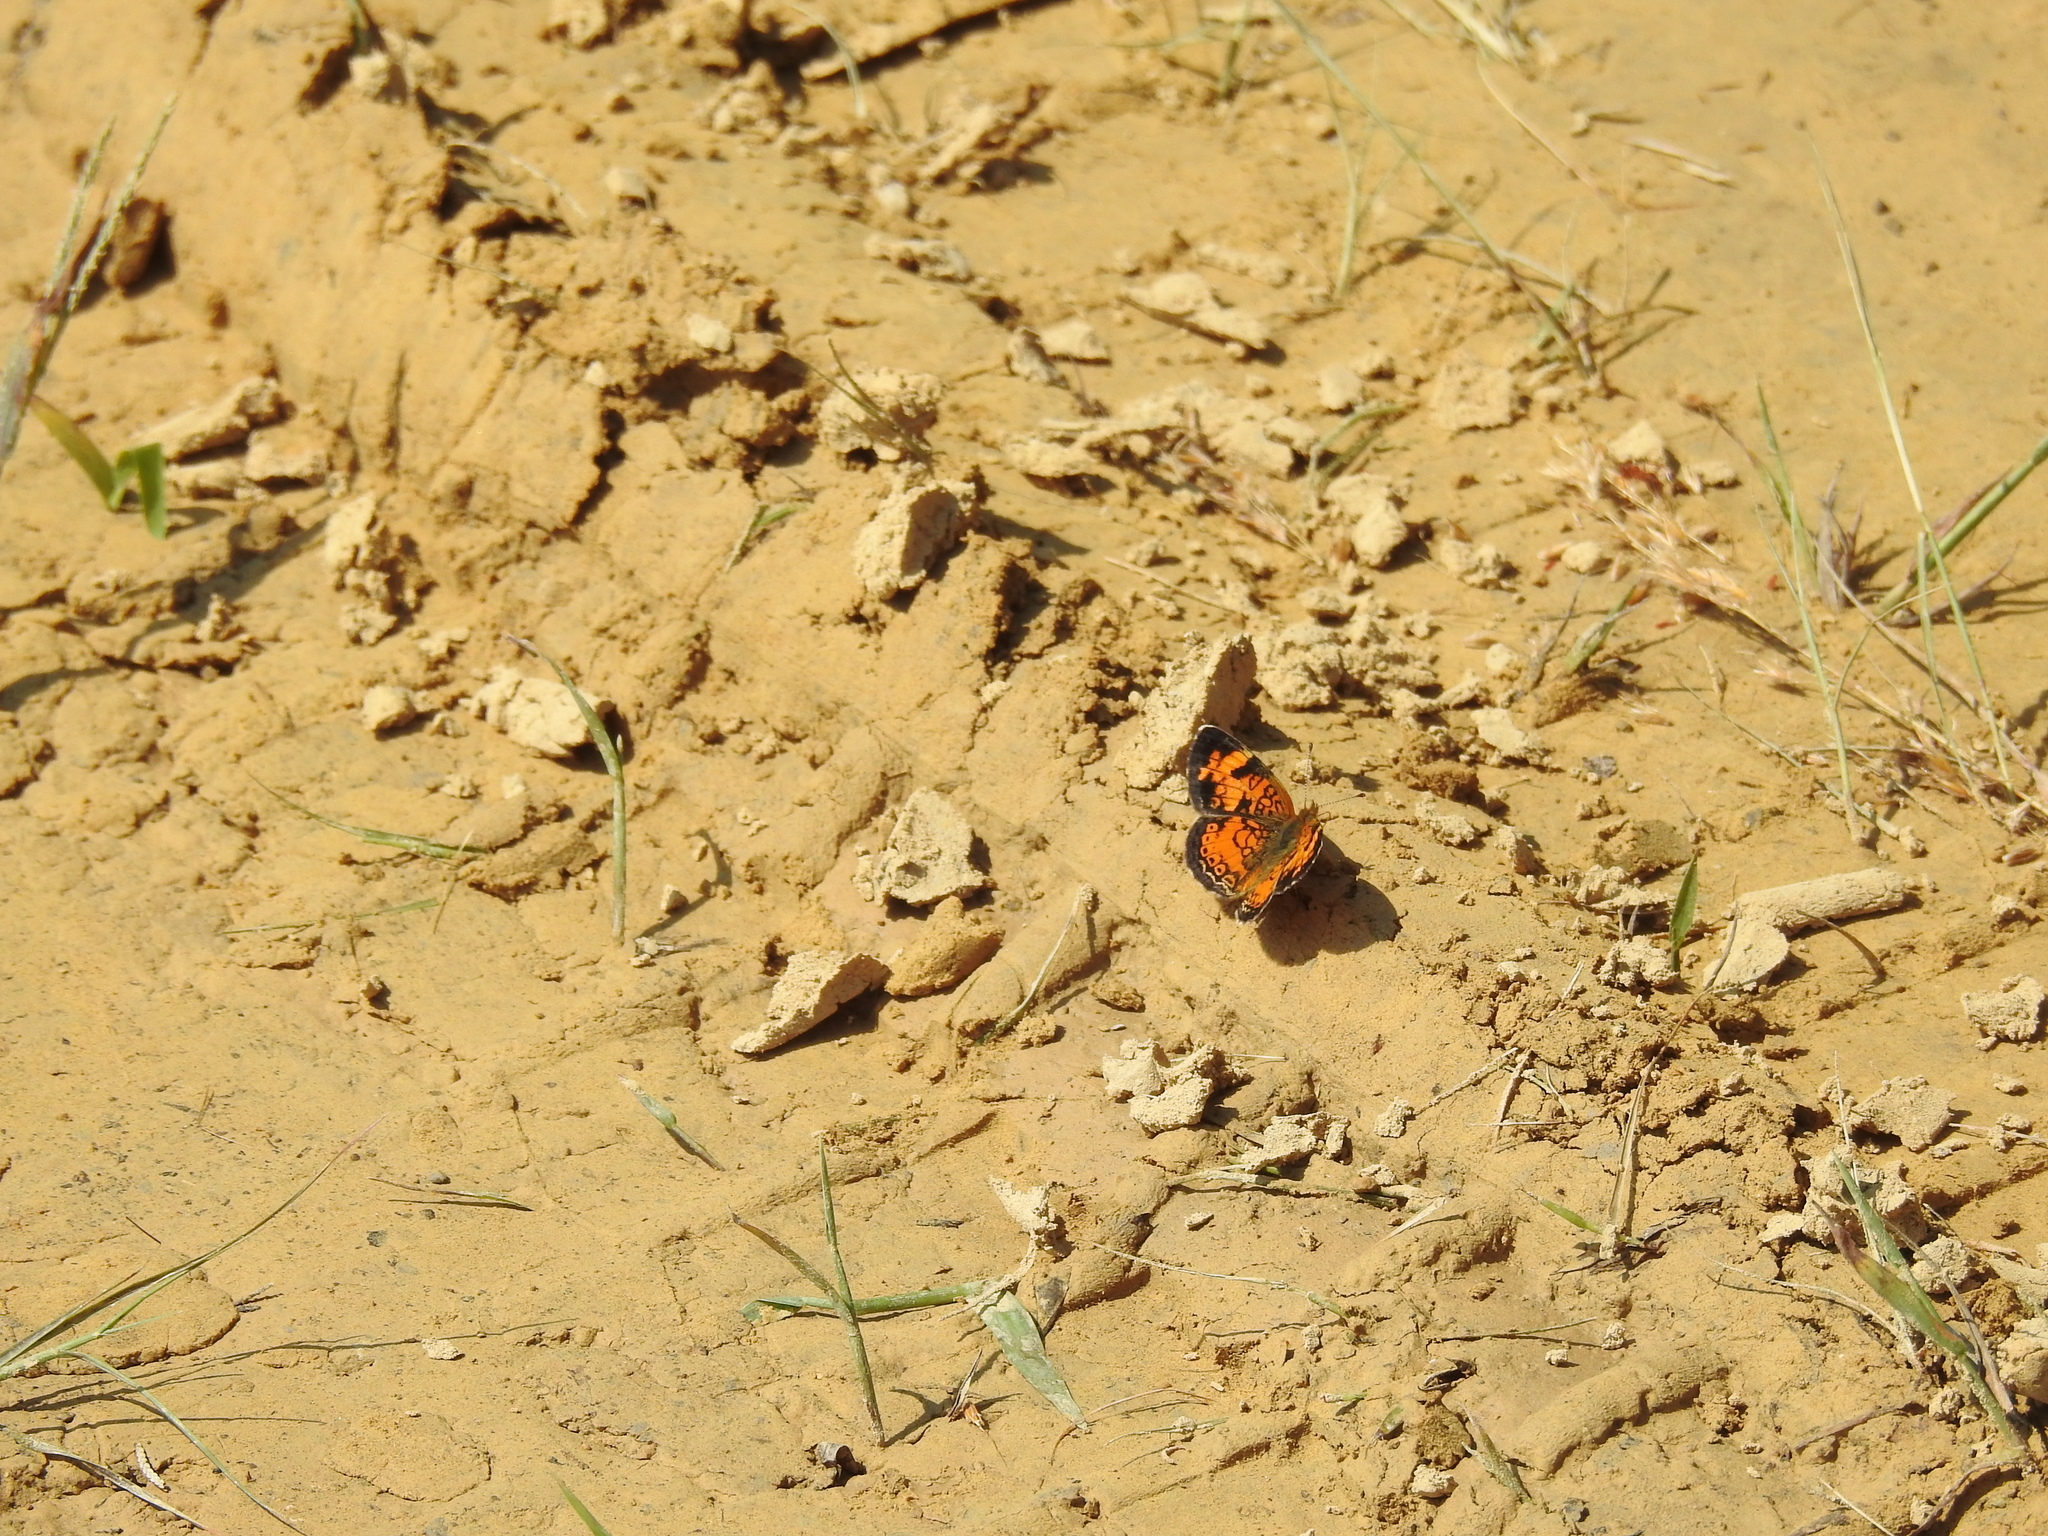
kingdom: Animalia
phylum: Arthropoda
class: Insecta
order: Lepidoptera
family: Nymphalidae
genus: Phyciodes
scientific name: Phyciodes tharos
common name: Pearl crescent
